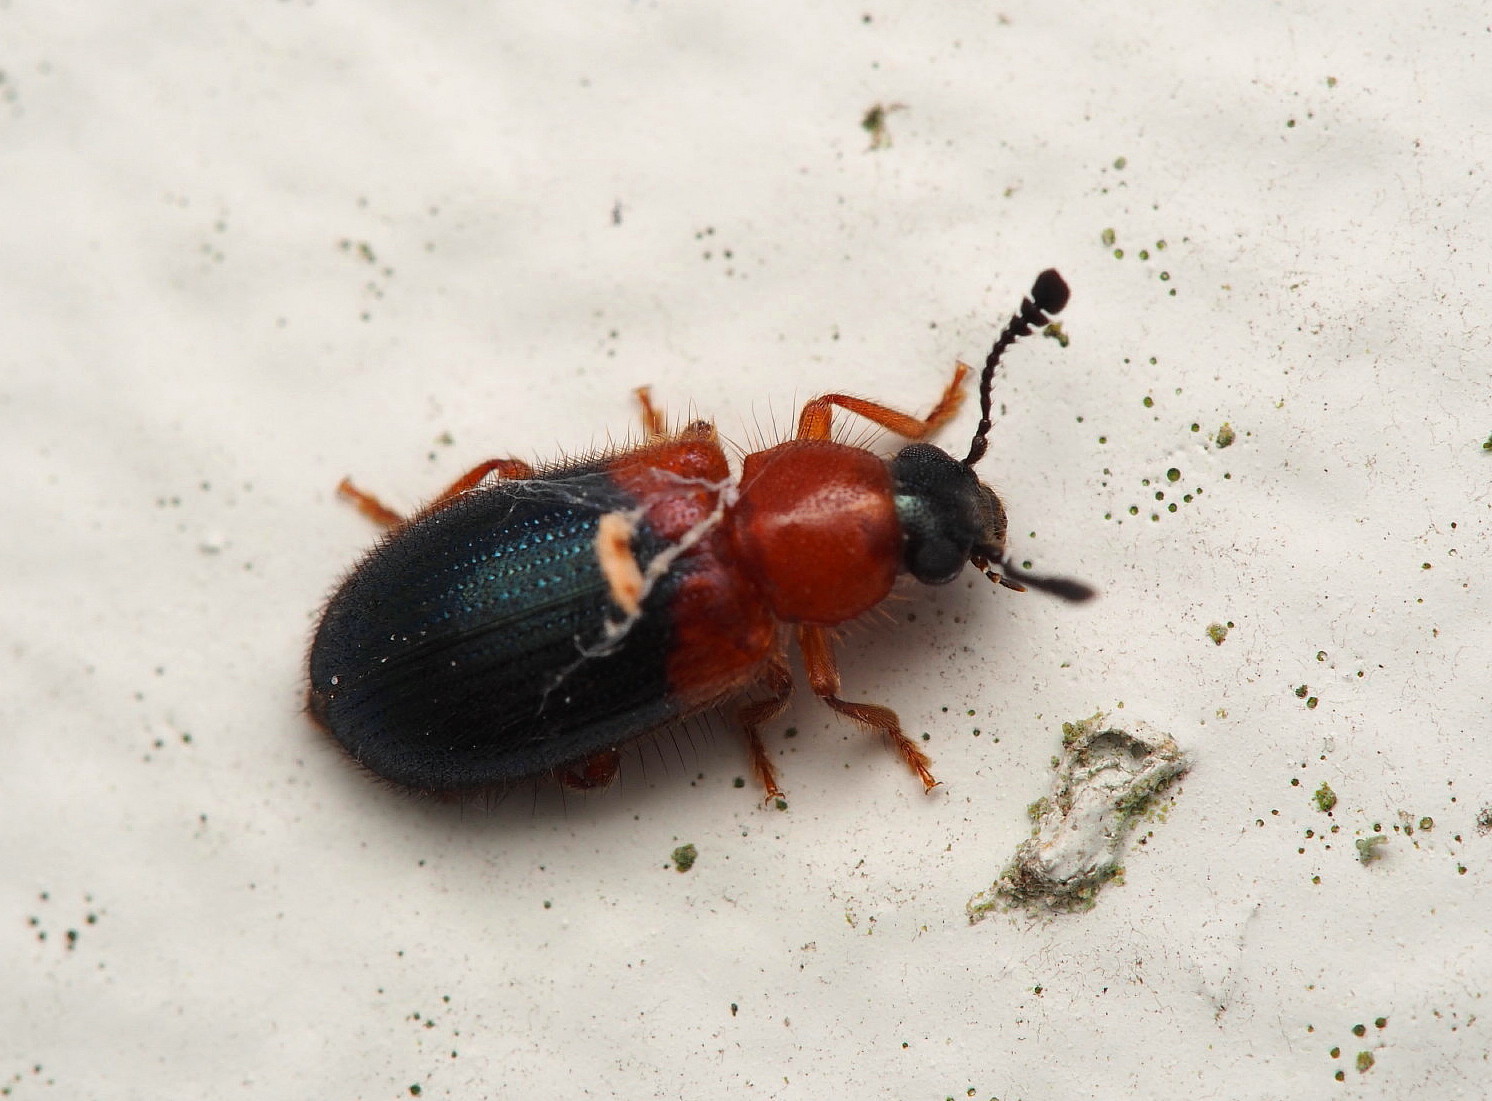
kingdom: Animalia
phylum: Arthropoda
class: Insecta
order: Coleoptera
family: Cleridae
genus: Necrobia
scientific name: Necrobia ruficollis
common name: Redshouldered ham beetle
